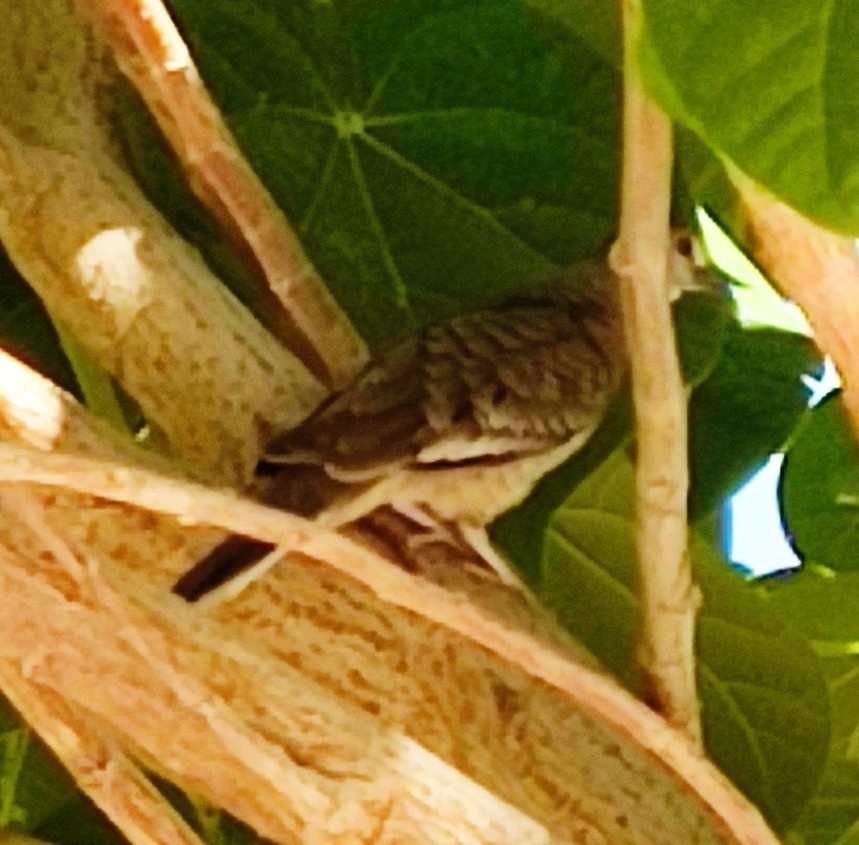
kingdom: Animalia
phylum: Chordata
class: Aves
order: Columbiformes
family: Columbidae
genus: Zenaida
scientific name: Zenaida macroura
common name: Mourning dove
